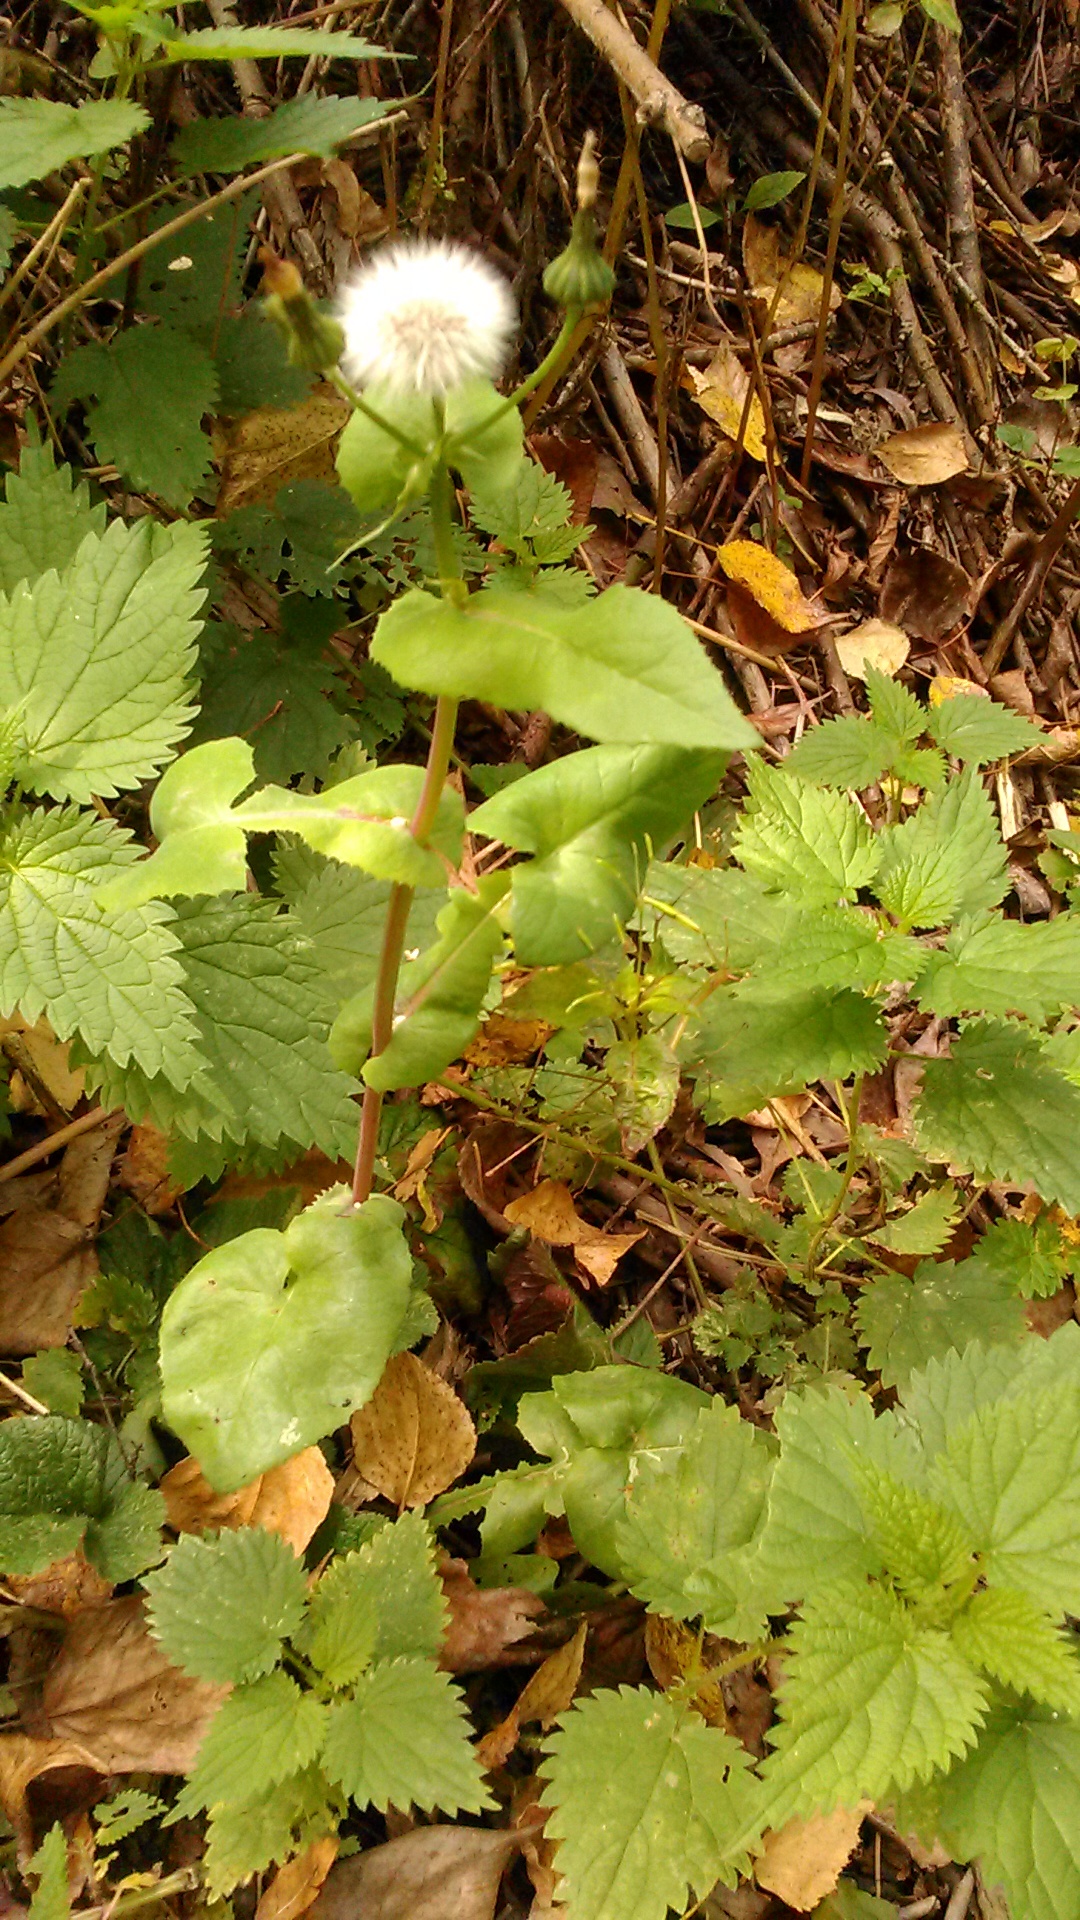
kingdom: Plantae
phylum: Tracheophyta
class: Magnoliopsida
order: Asterales
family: Asteraceae
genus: Sonchus
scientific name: Sonchus oleraceus
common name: Common sowthistle
